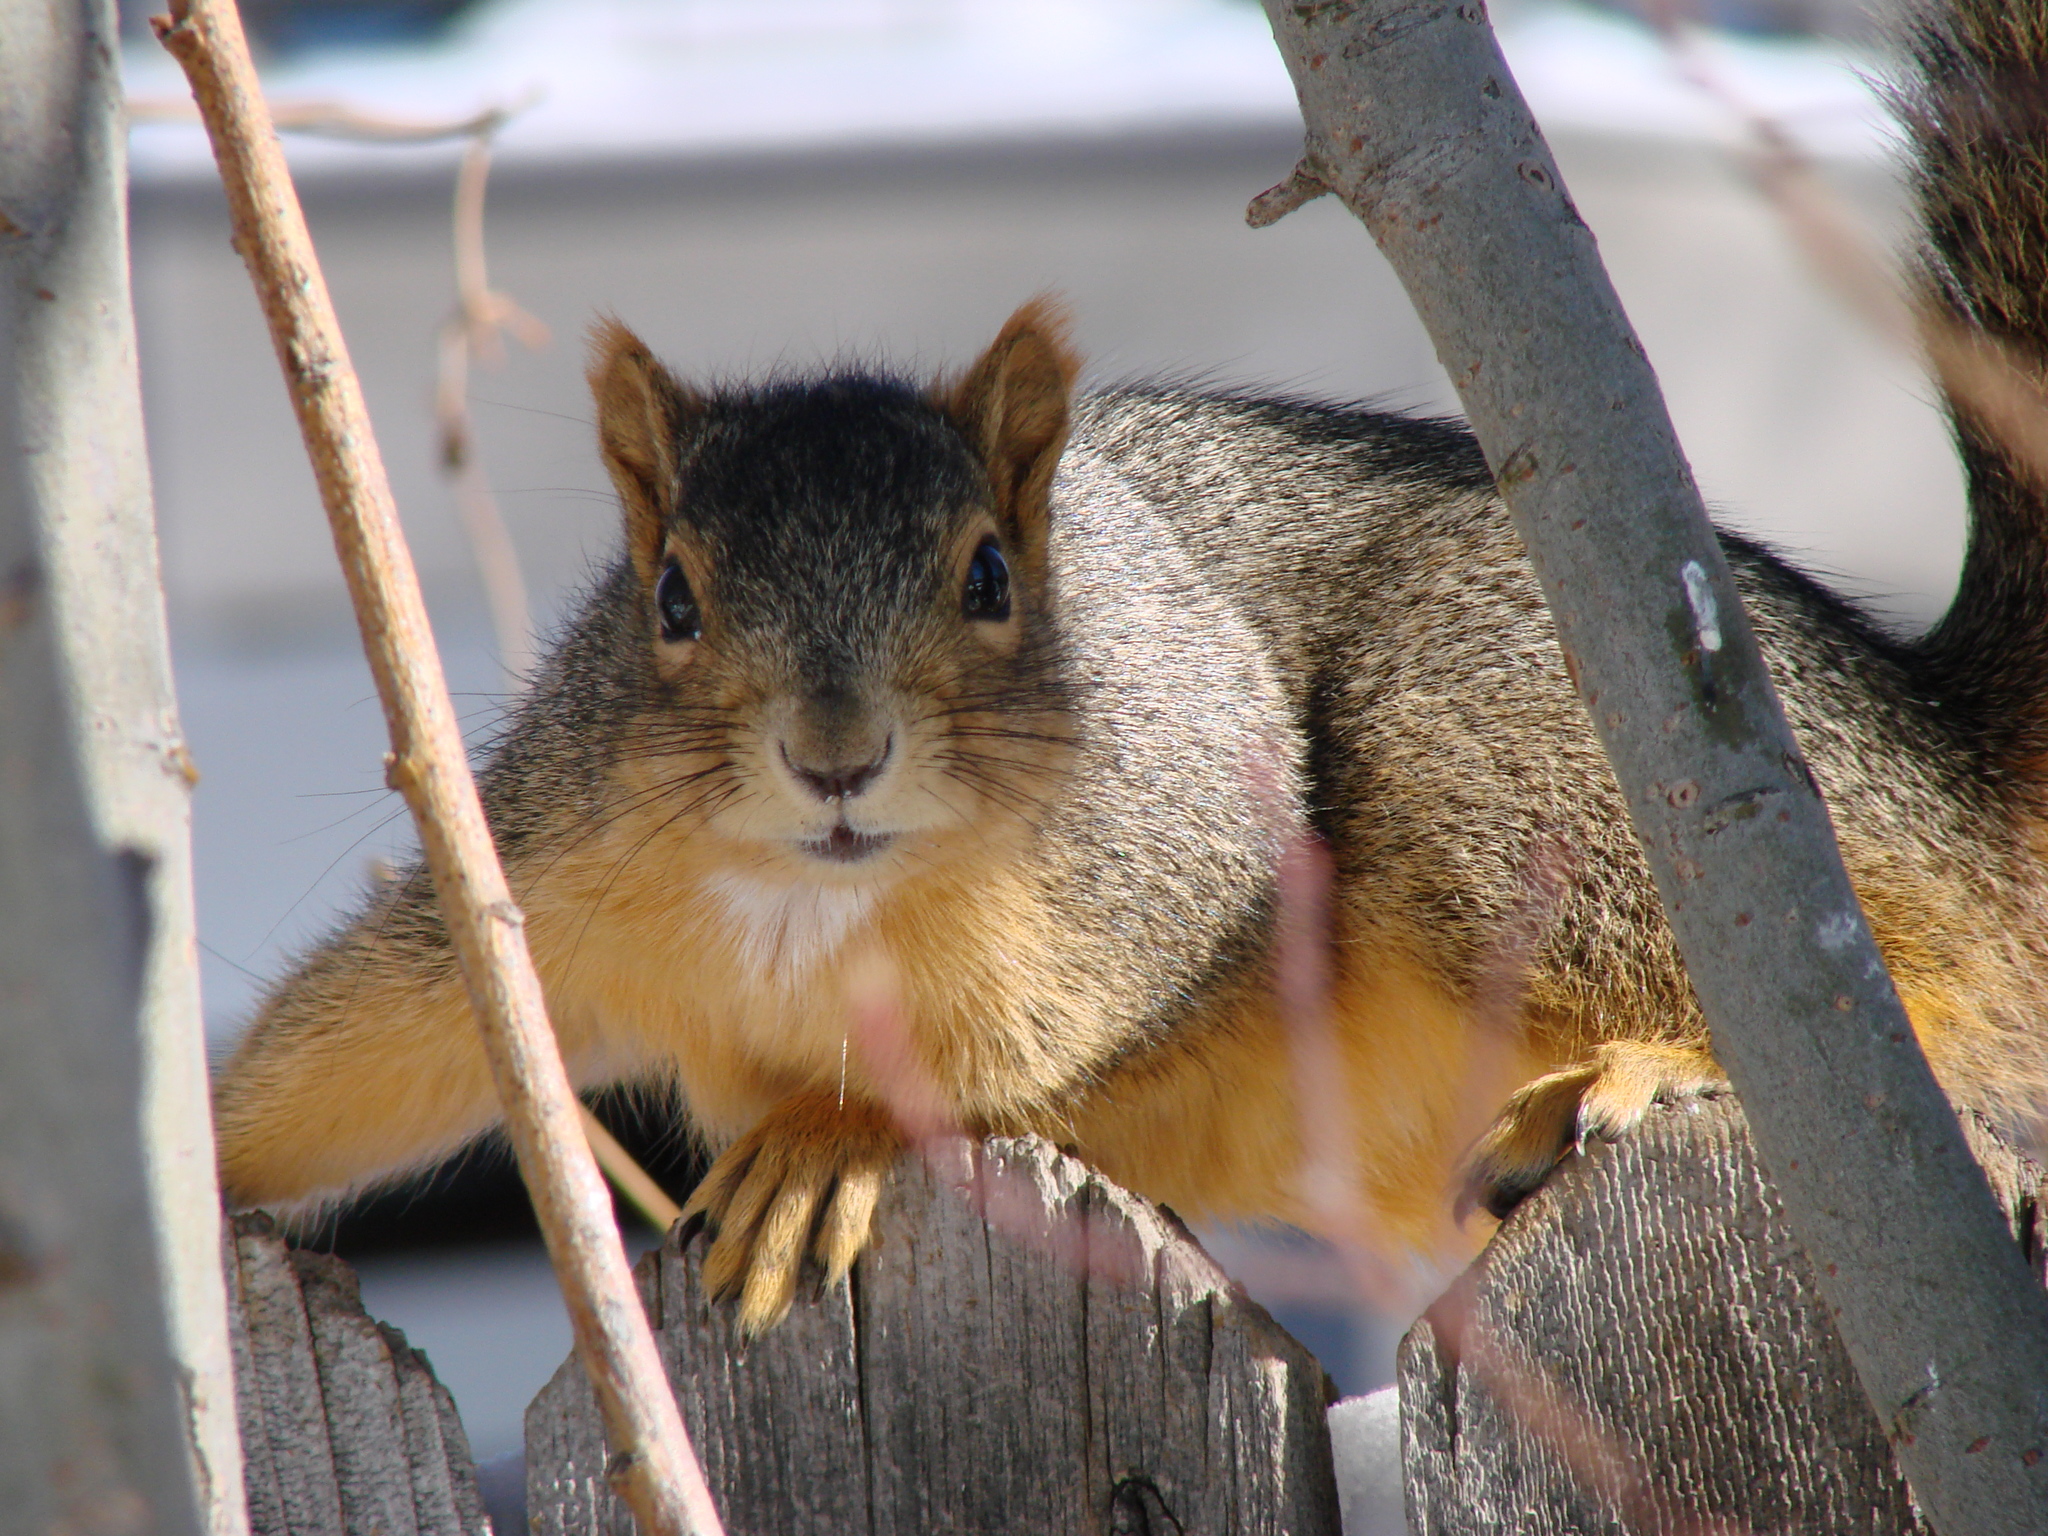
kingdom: Animalia
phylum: Chordata
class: Mammalia
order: Rodentia
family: Sciuridae
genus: Sciurus
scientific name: Sciurus niger
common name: Fox squirrel
